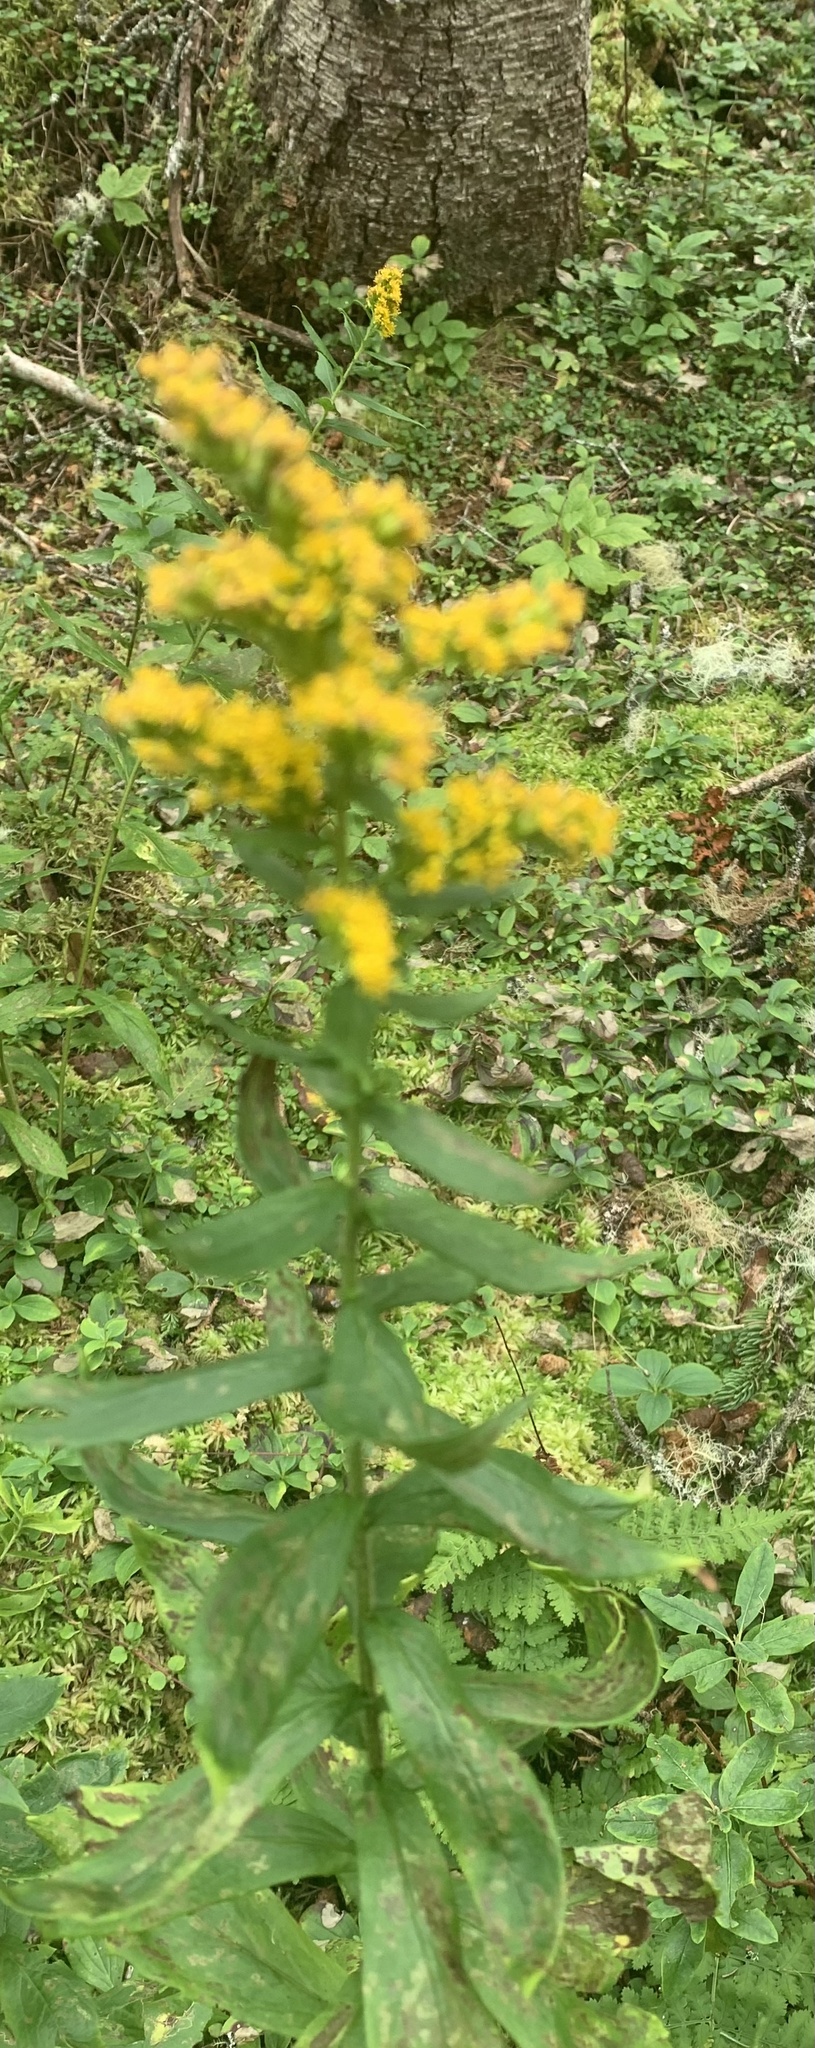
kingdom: Plantae
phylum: Tracheophyta
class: Magnoliopsida
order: Asterales
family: Asteraceae
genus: Solidago
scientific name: Solidago rugosa
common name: Rough-stemmed goldenrod
